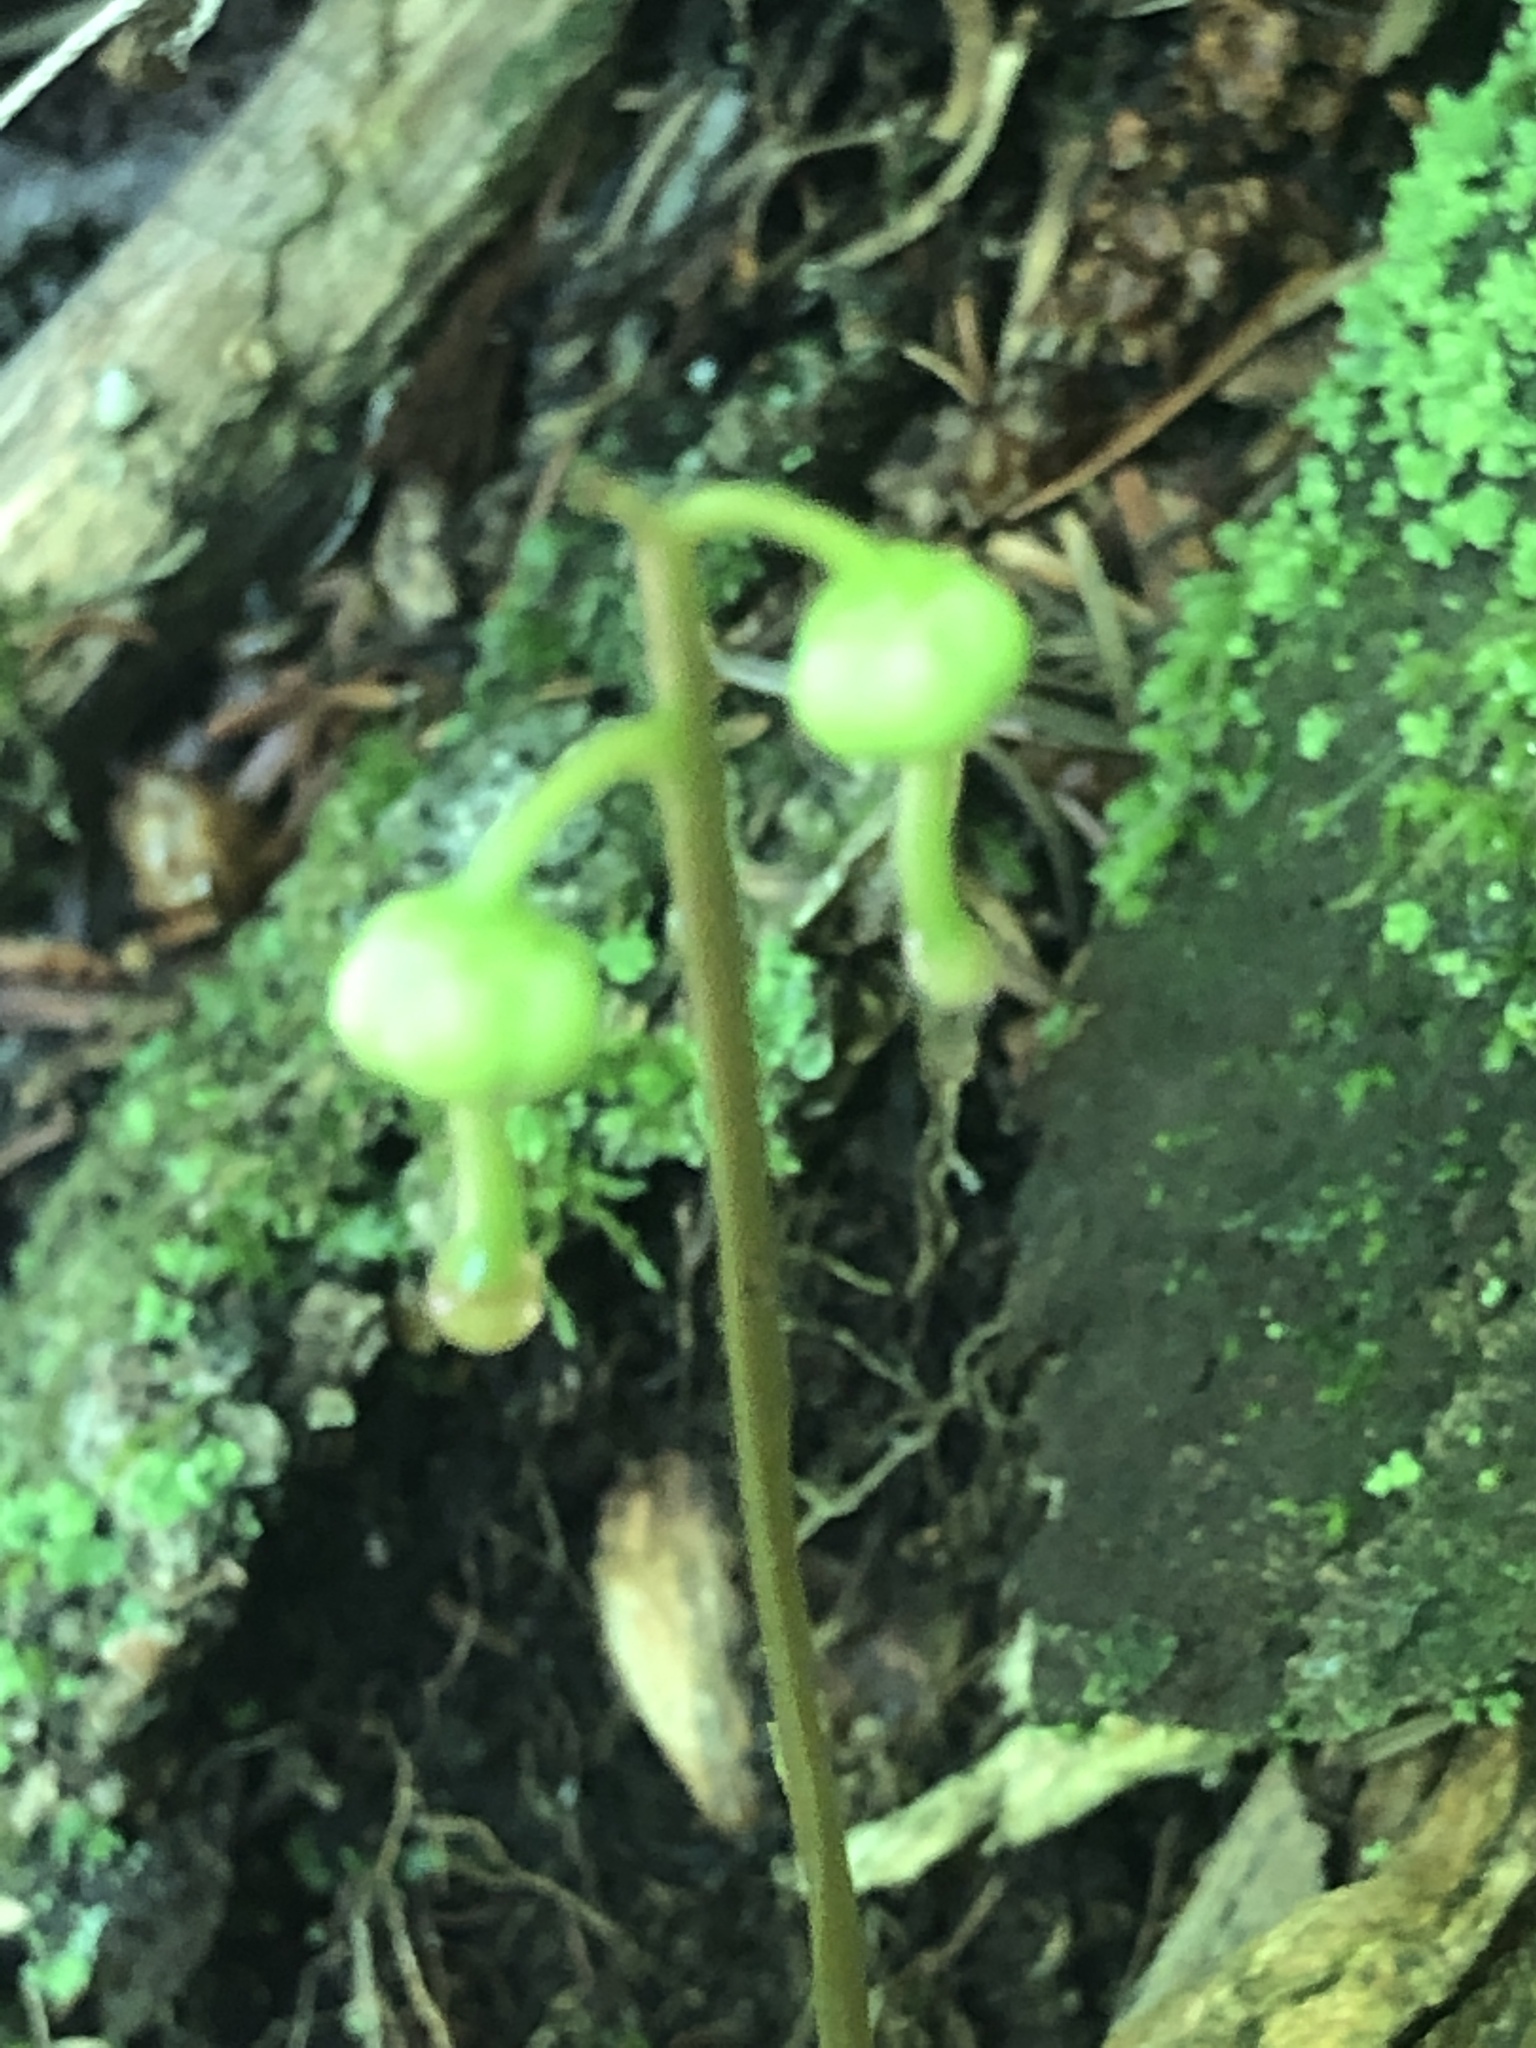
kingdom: Plantae
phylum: Tracheophyta
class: Magnoliopsida
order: Ericales
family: Ericaceae
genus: Pyrola
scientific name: Pyrola chlorantha
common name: Green wintergreen
